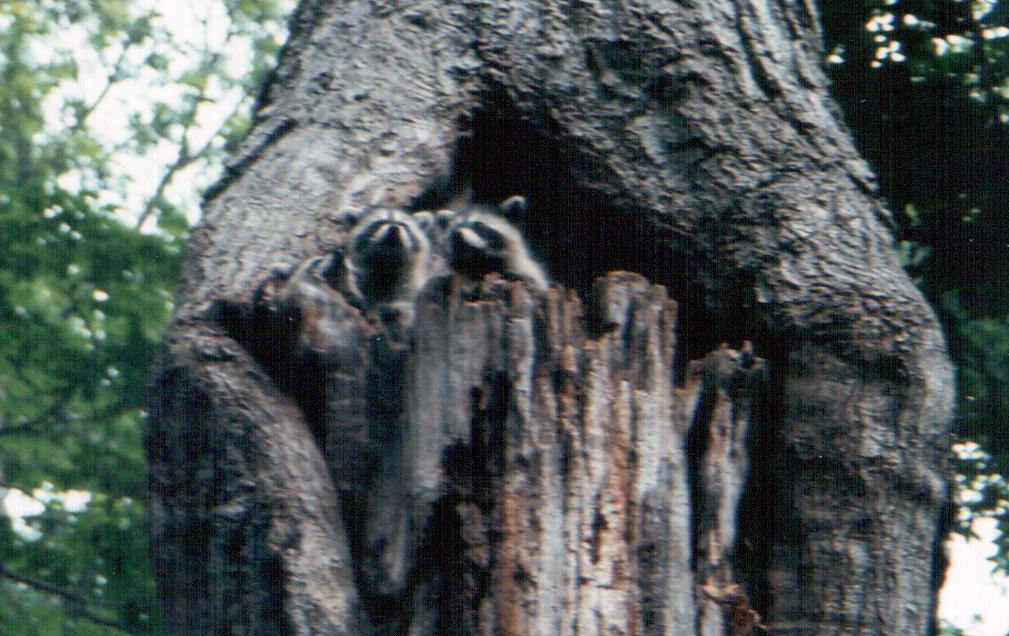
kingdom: Animalia
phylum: Chordata
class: Mammalia
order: Carnivora
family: Procyonidae
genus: Procyon
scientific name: Procyon lotor
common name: Raccoon
